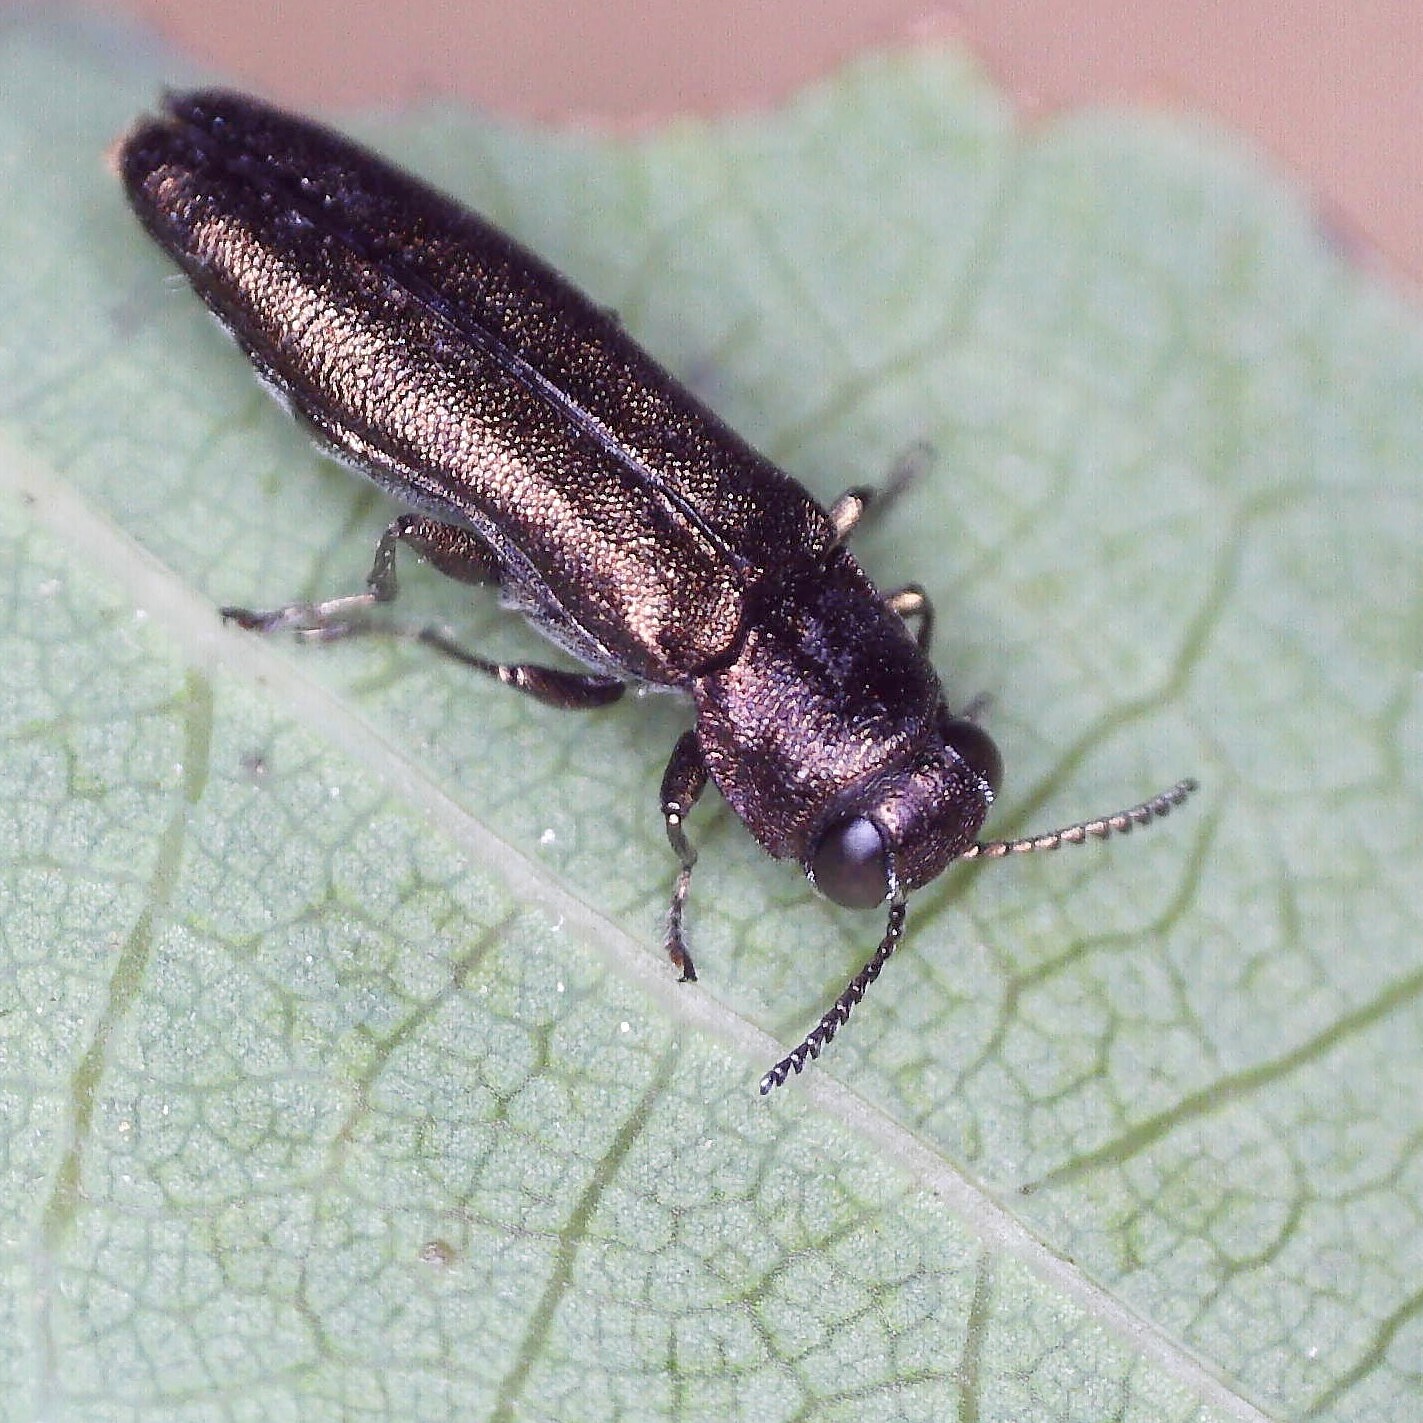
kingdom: Animalia
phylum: Arthropoda
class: Insecta
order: Coleoptera
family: Buprestidae
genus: Agrilus
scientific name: Agrilus laticornis
